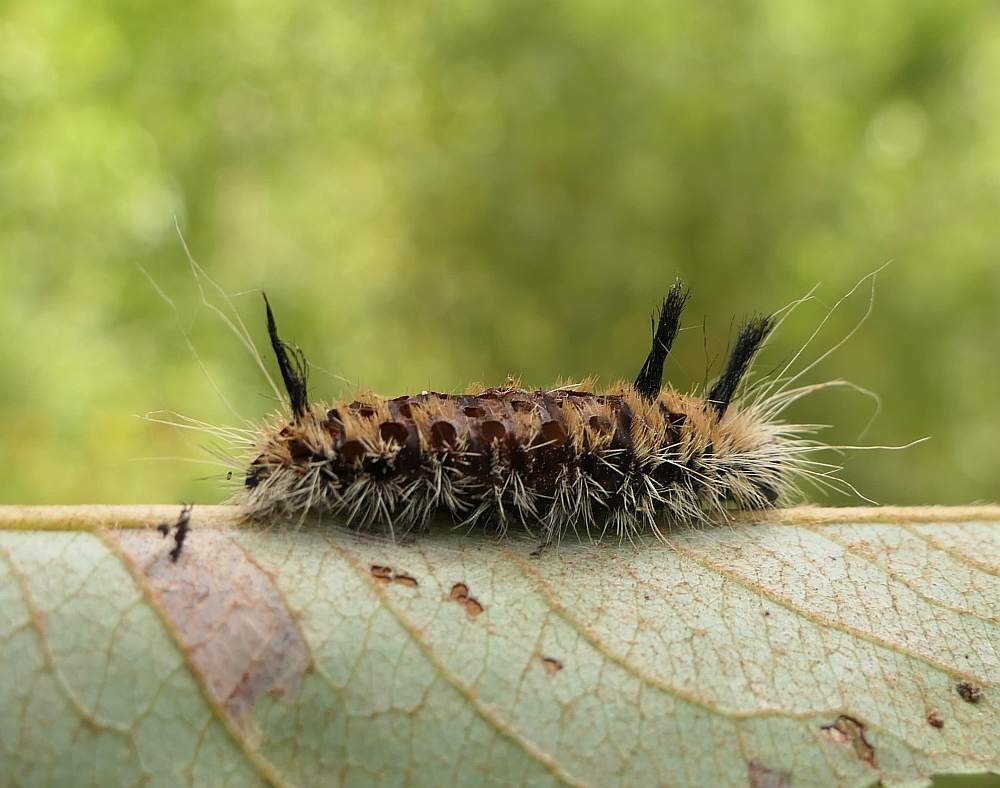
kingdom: Animalia
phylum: Arthropoda
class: Insecta
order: Lepidoptera
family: Noctuidae
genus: Acronicta
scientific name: Acronicta insita
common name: Large gray dagger
